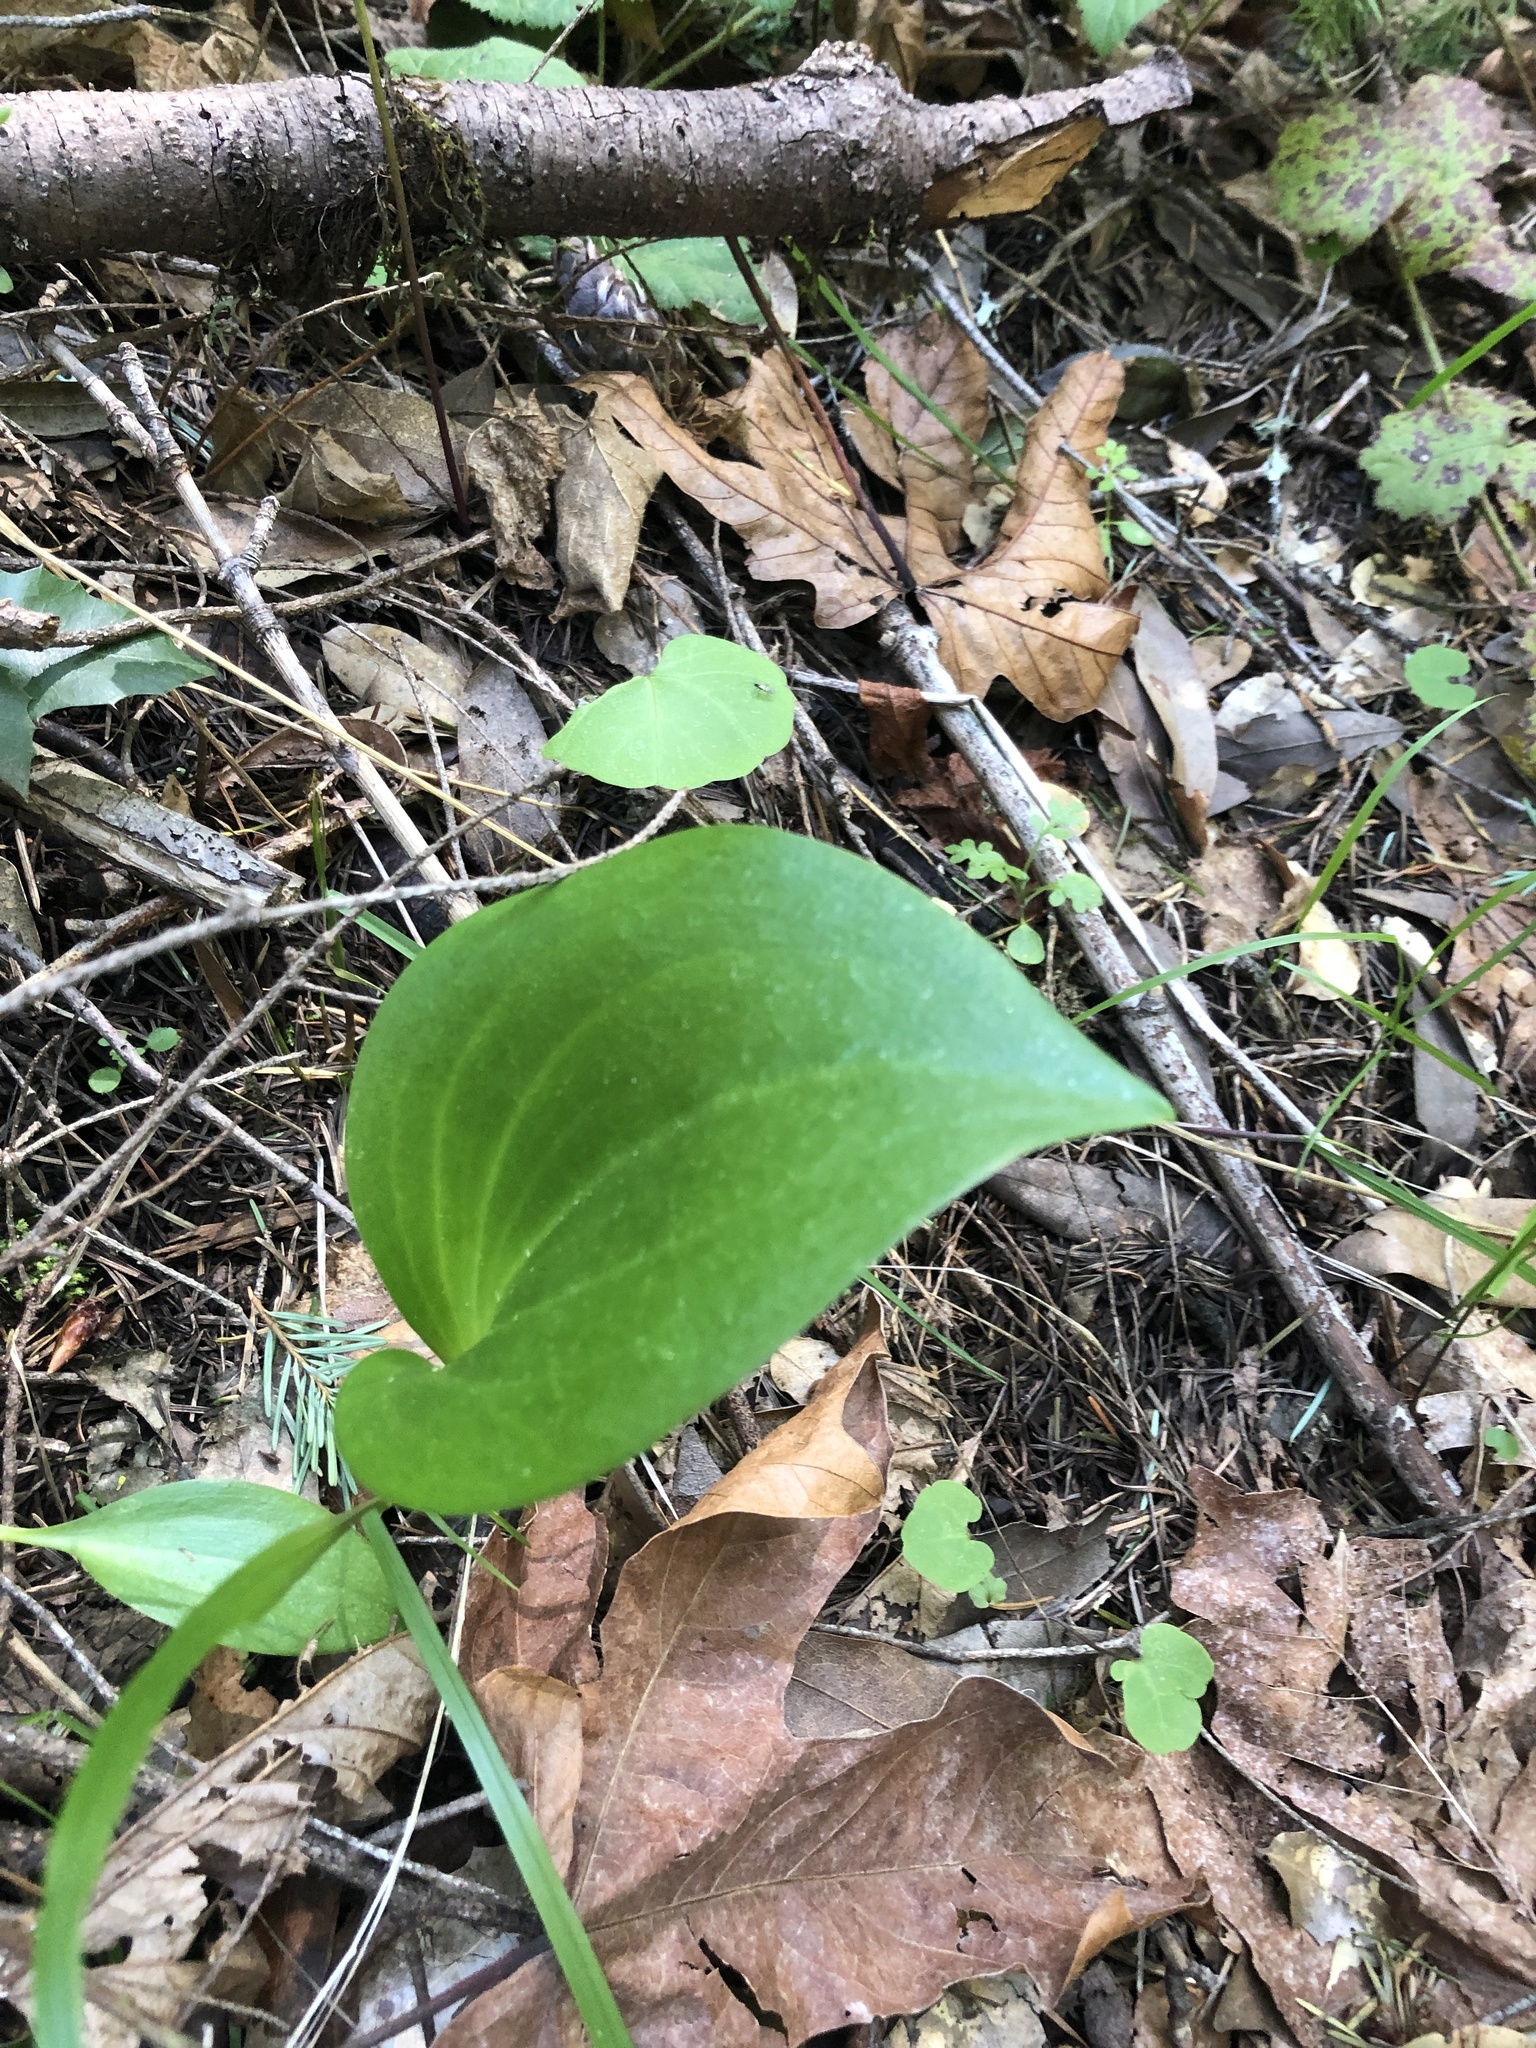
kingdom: Plantae
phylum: Tracheophyta
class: Liliopsida
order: Liliales
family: Liliaceae
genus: Fritillaria
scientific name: Fritillaria affinis
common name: Ojai fritillary
